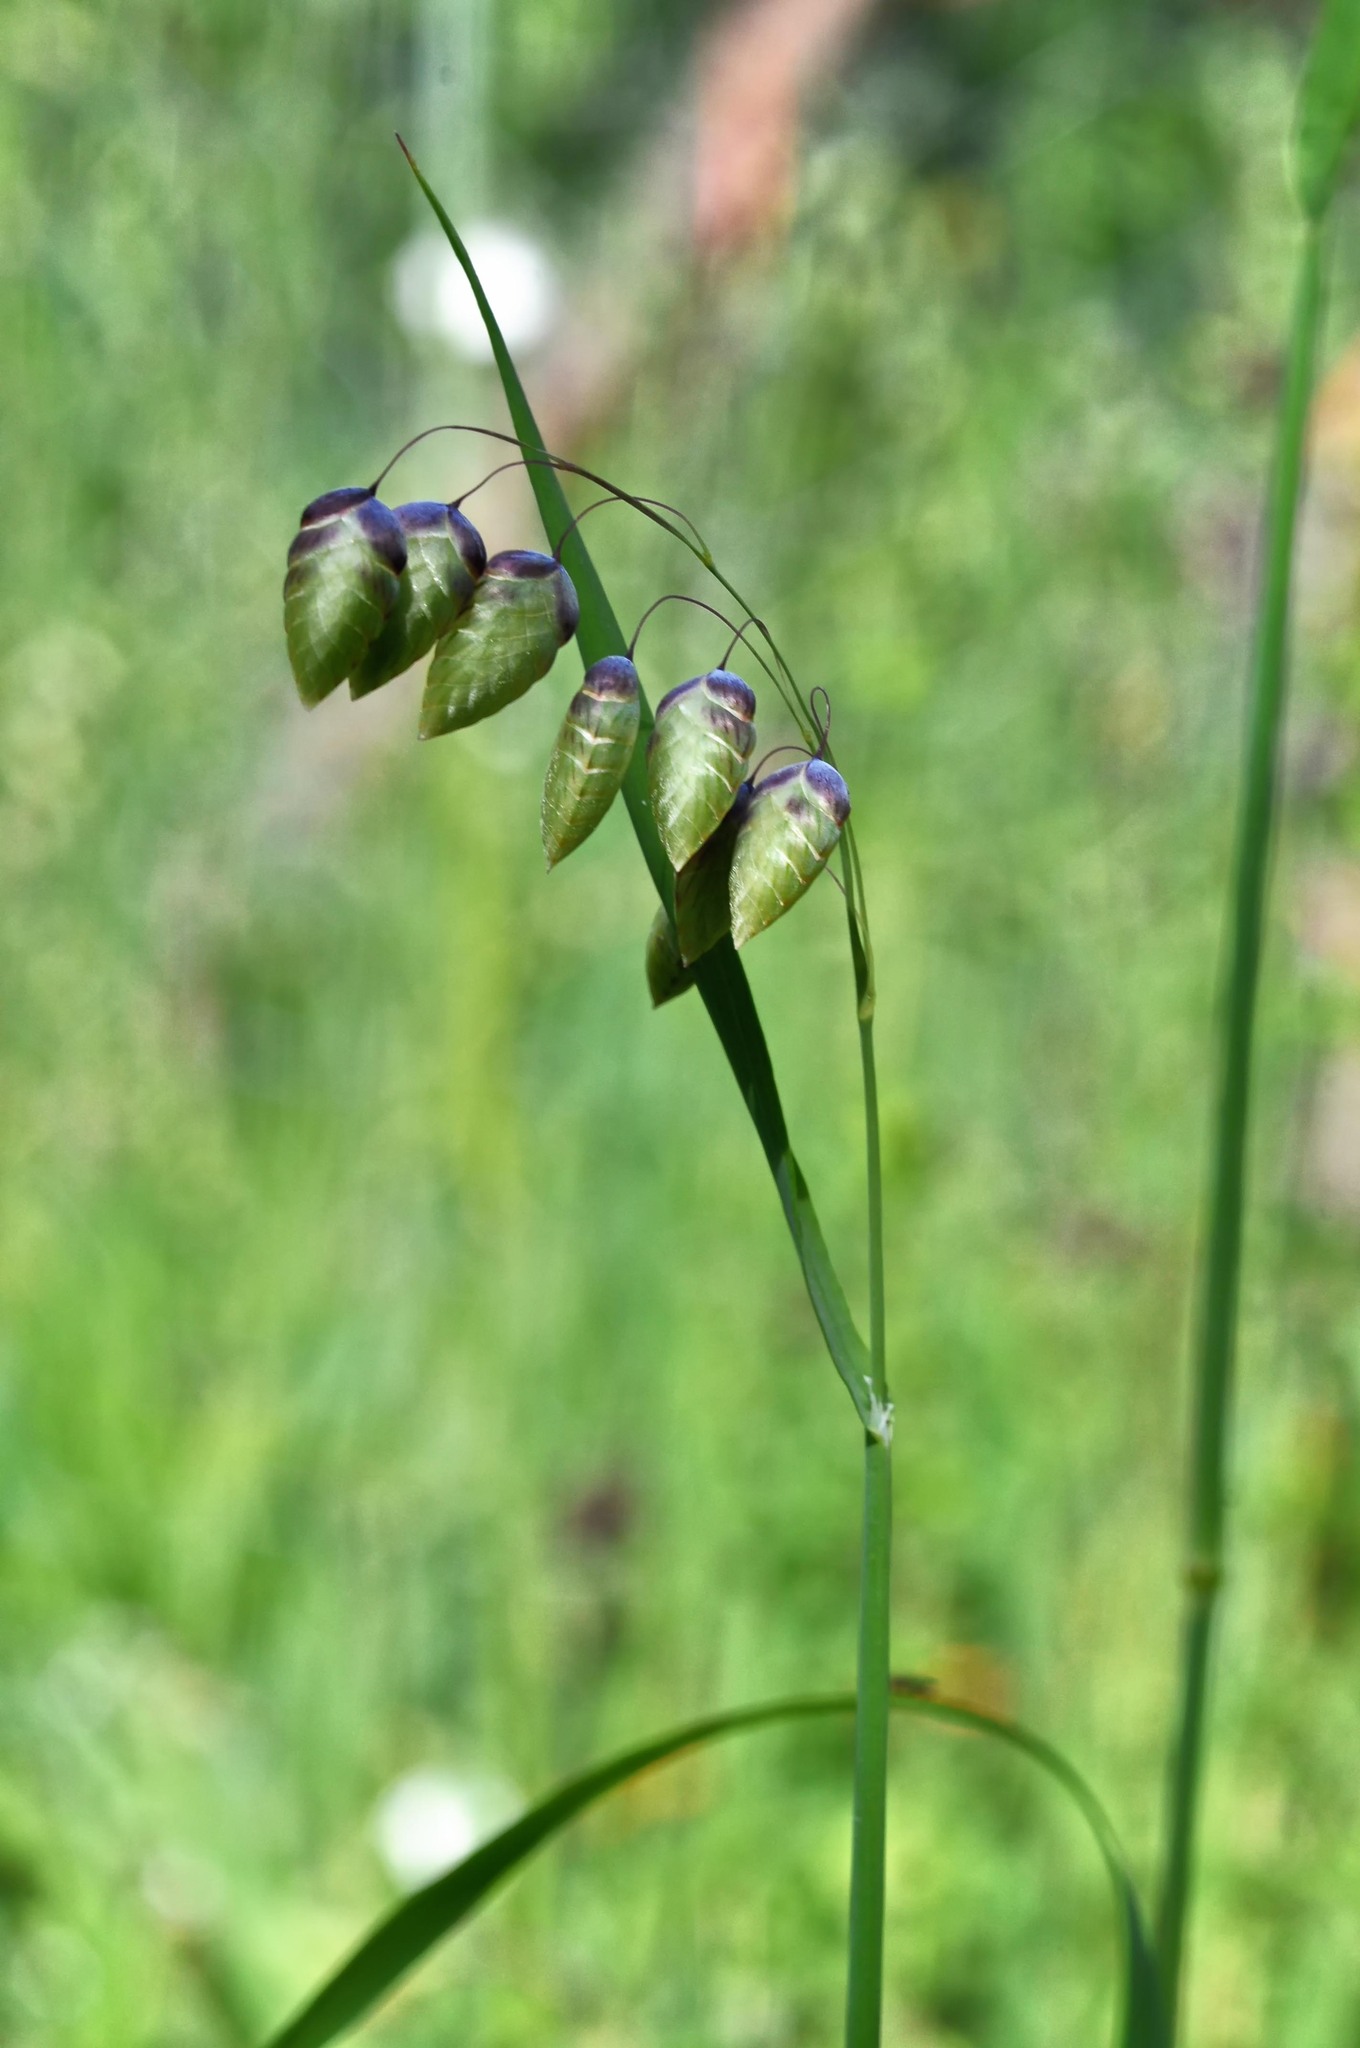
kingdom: Plantae
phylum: Tracheophyta
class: Liliopsida
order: Poales
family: Poaceae
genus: Briza
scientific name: Briza maxima
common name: Big quakinggrass
